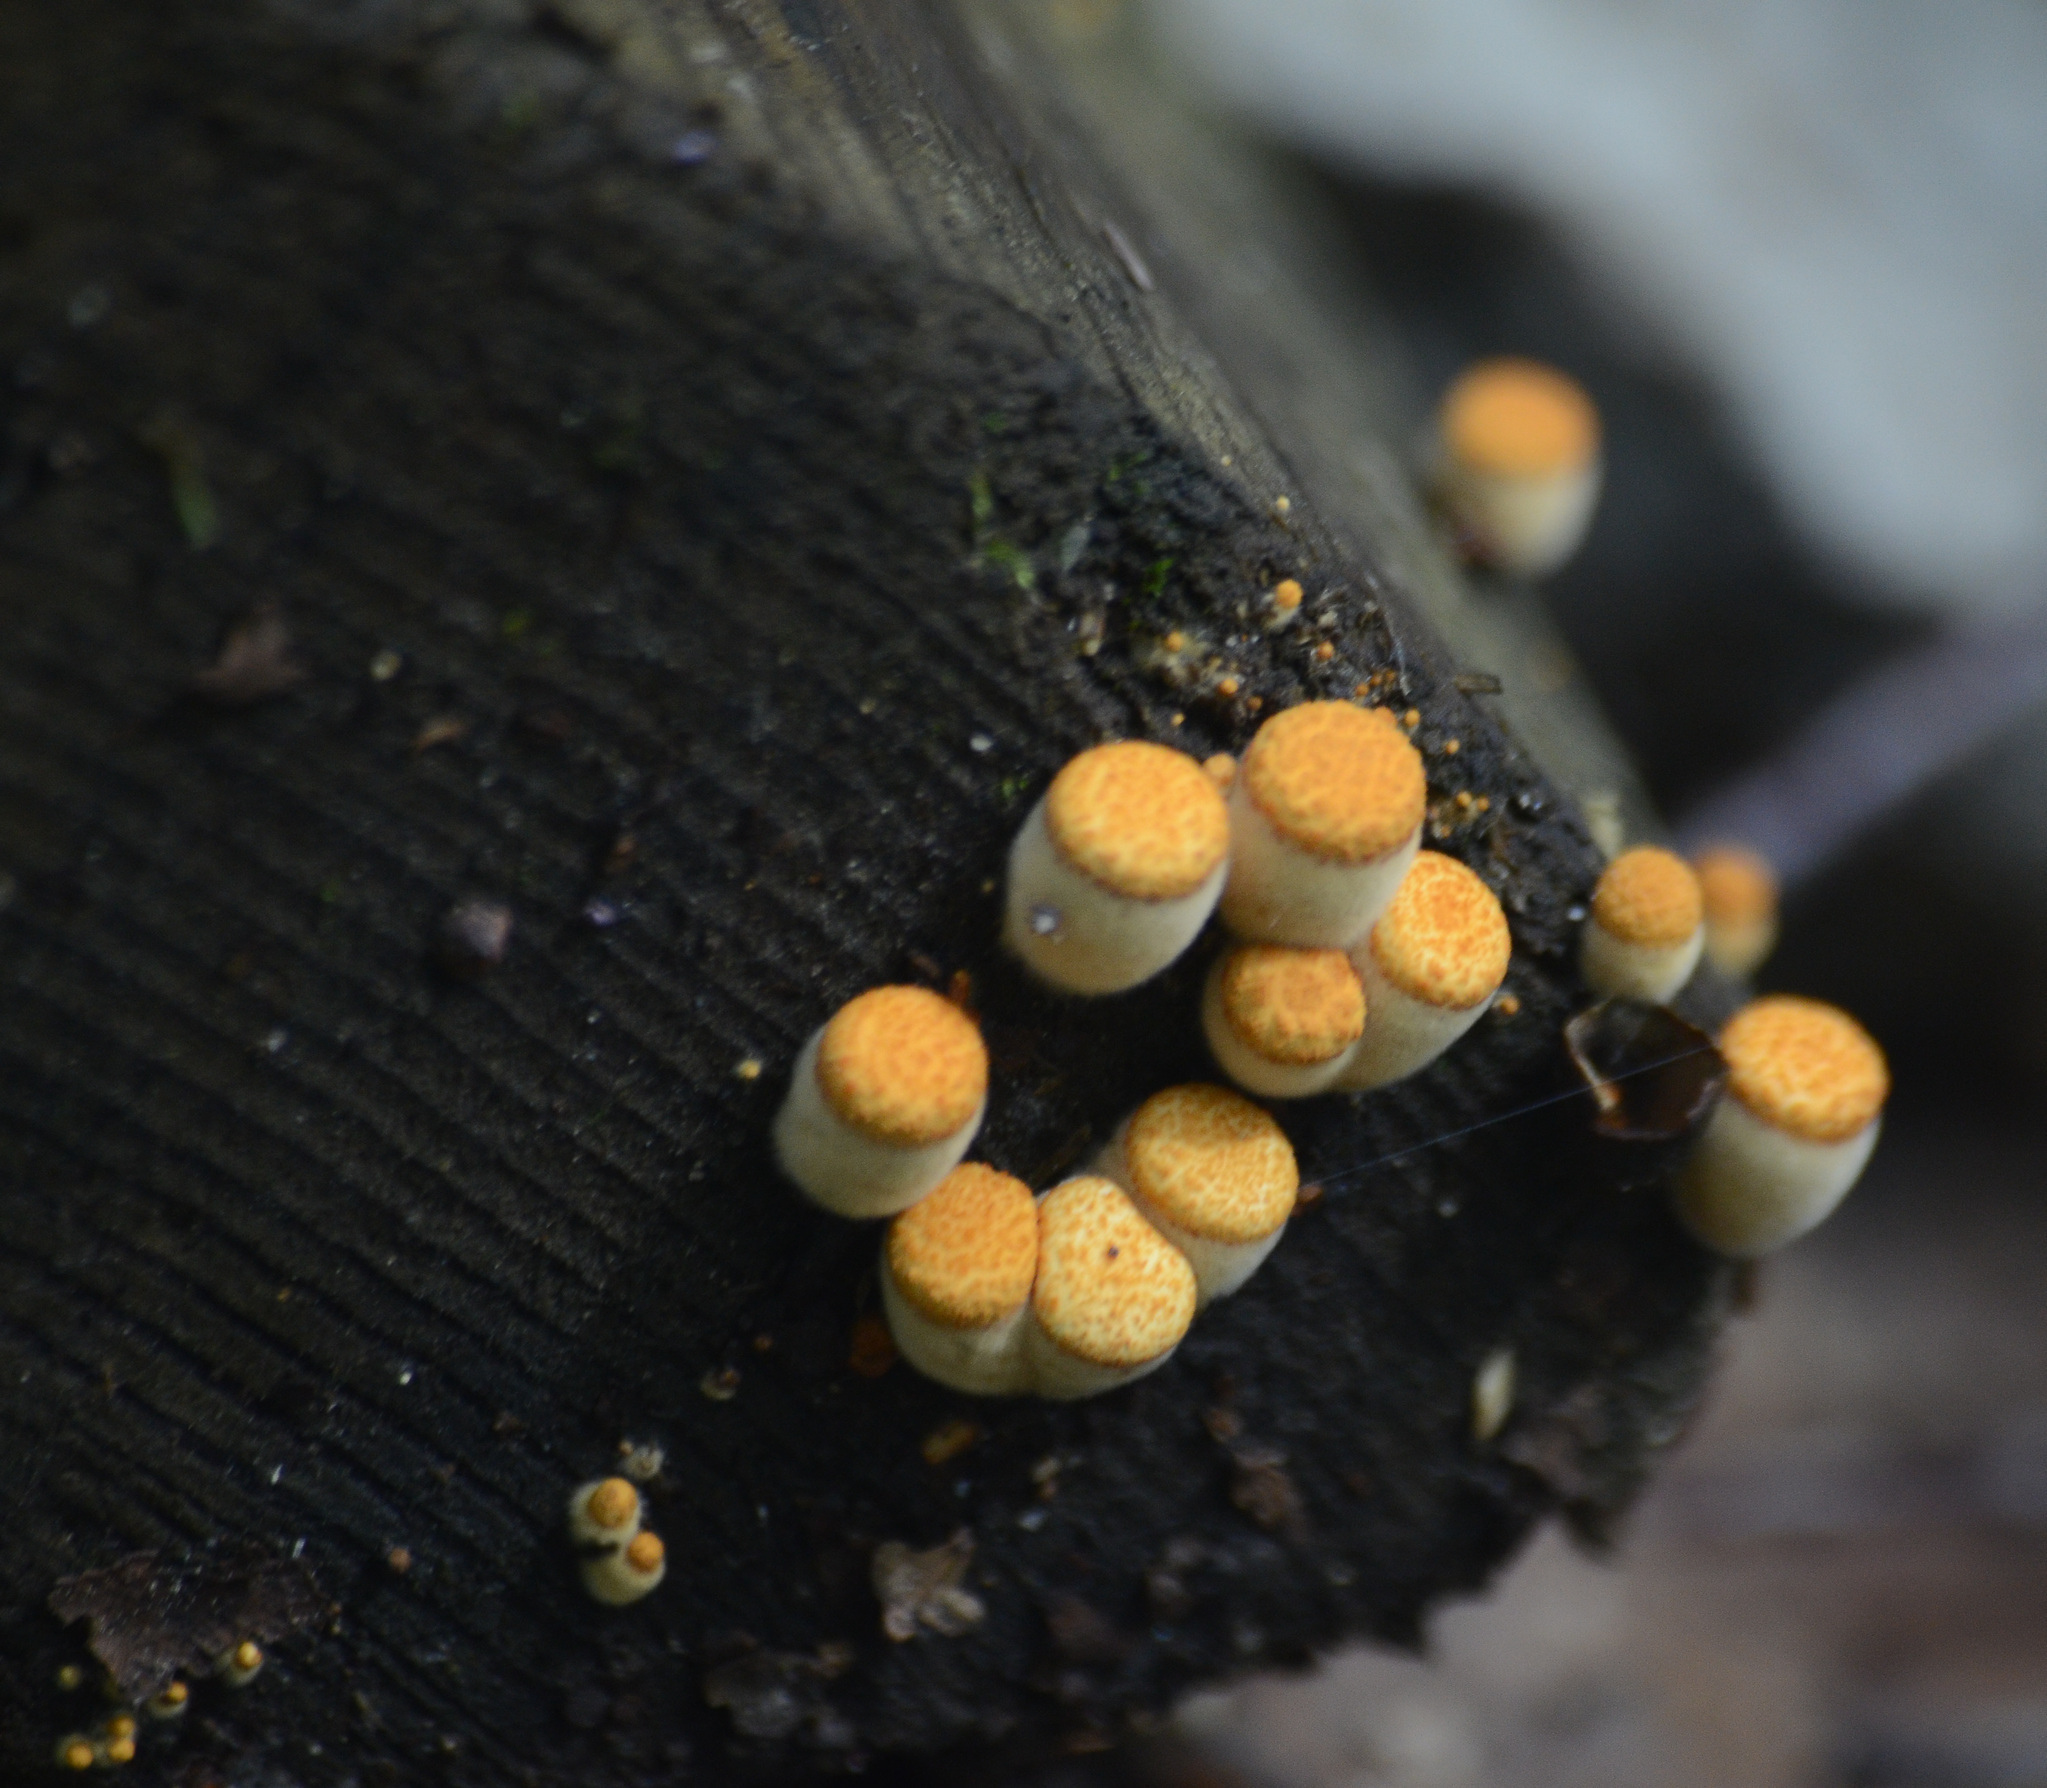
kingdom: Fungi
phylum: Basidiomycota
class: Agaricomycetes
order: Agaricales
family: Nidulariaceae
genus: Crucibulum
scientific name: Crucibulum laeve
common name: Common bird's nest
